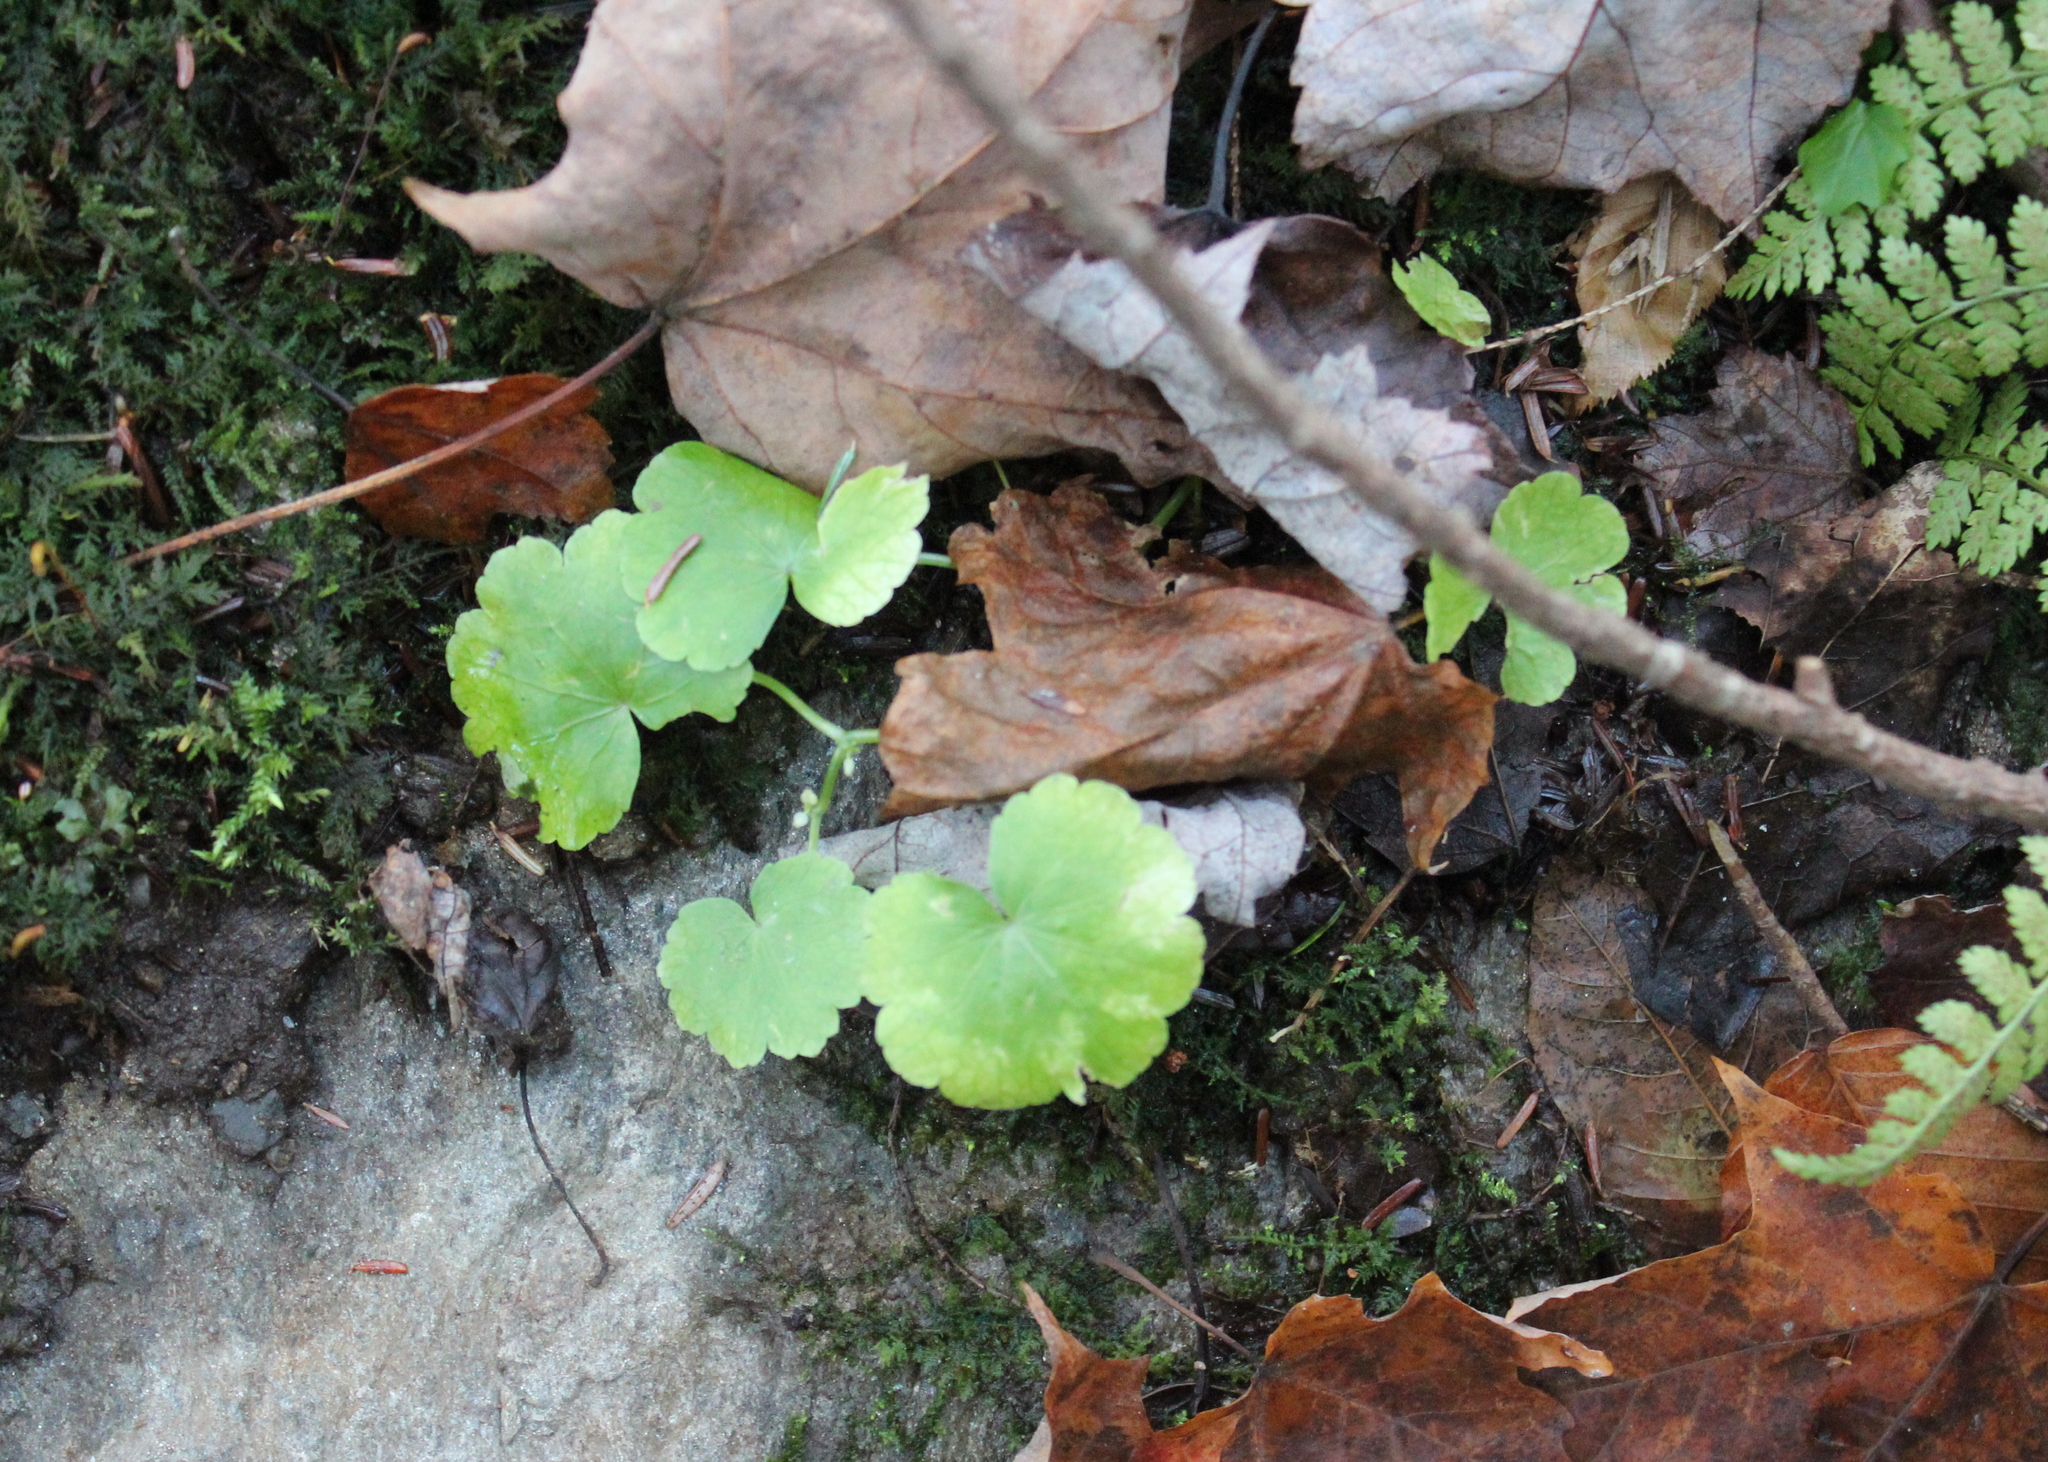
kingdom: Plantae
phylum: Tracheophyta
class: Magnoliopsida
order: Apiales
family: Araliaceae
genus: Hydrocotyle
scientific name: Hydrocotyle americana
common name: American water-pennywort
